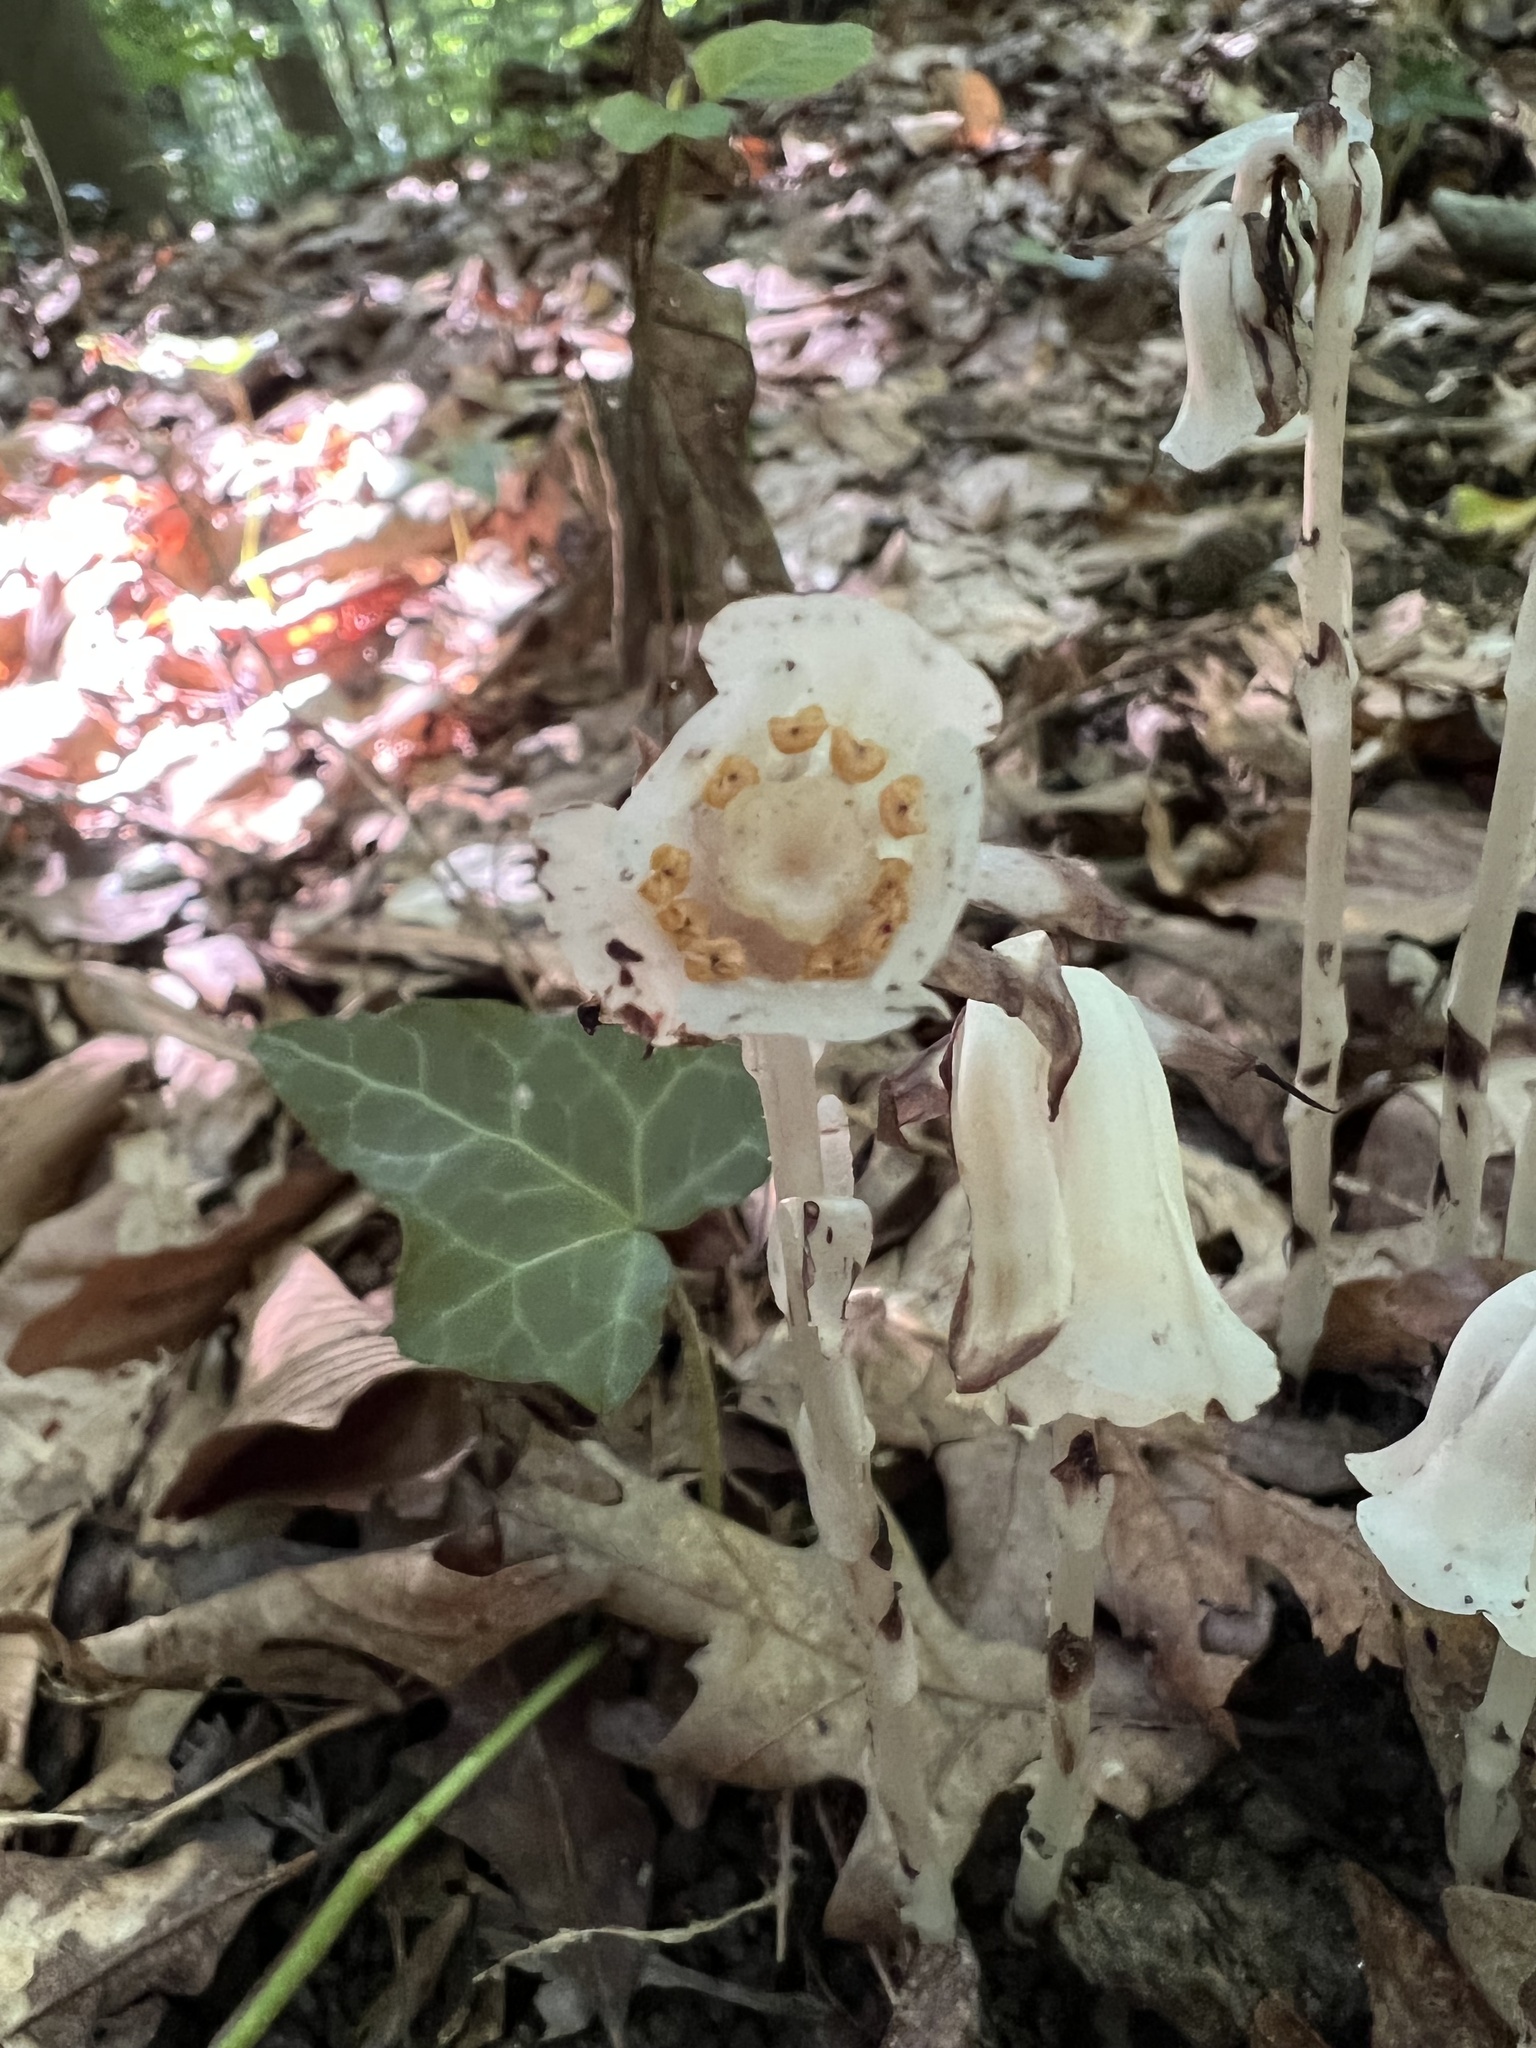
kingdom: Plantae
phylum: Tracheophyta
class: Magnoliopsida
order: Ericales
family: Ericaceae
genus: Monotropa
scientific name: Monotropa uniflora
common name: Convulsion root
